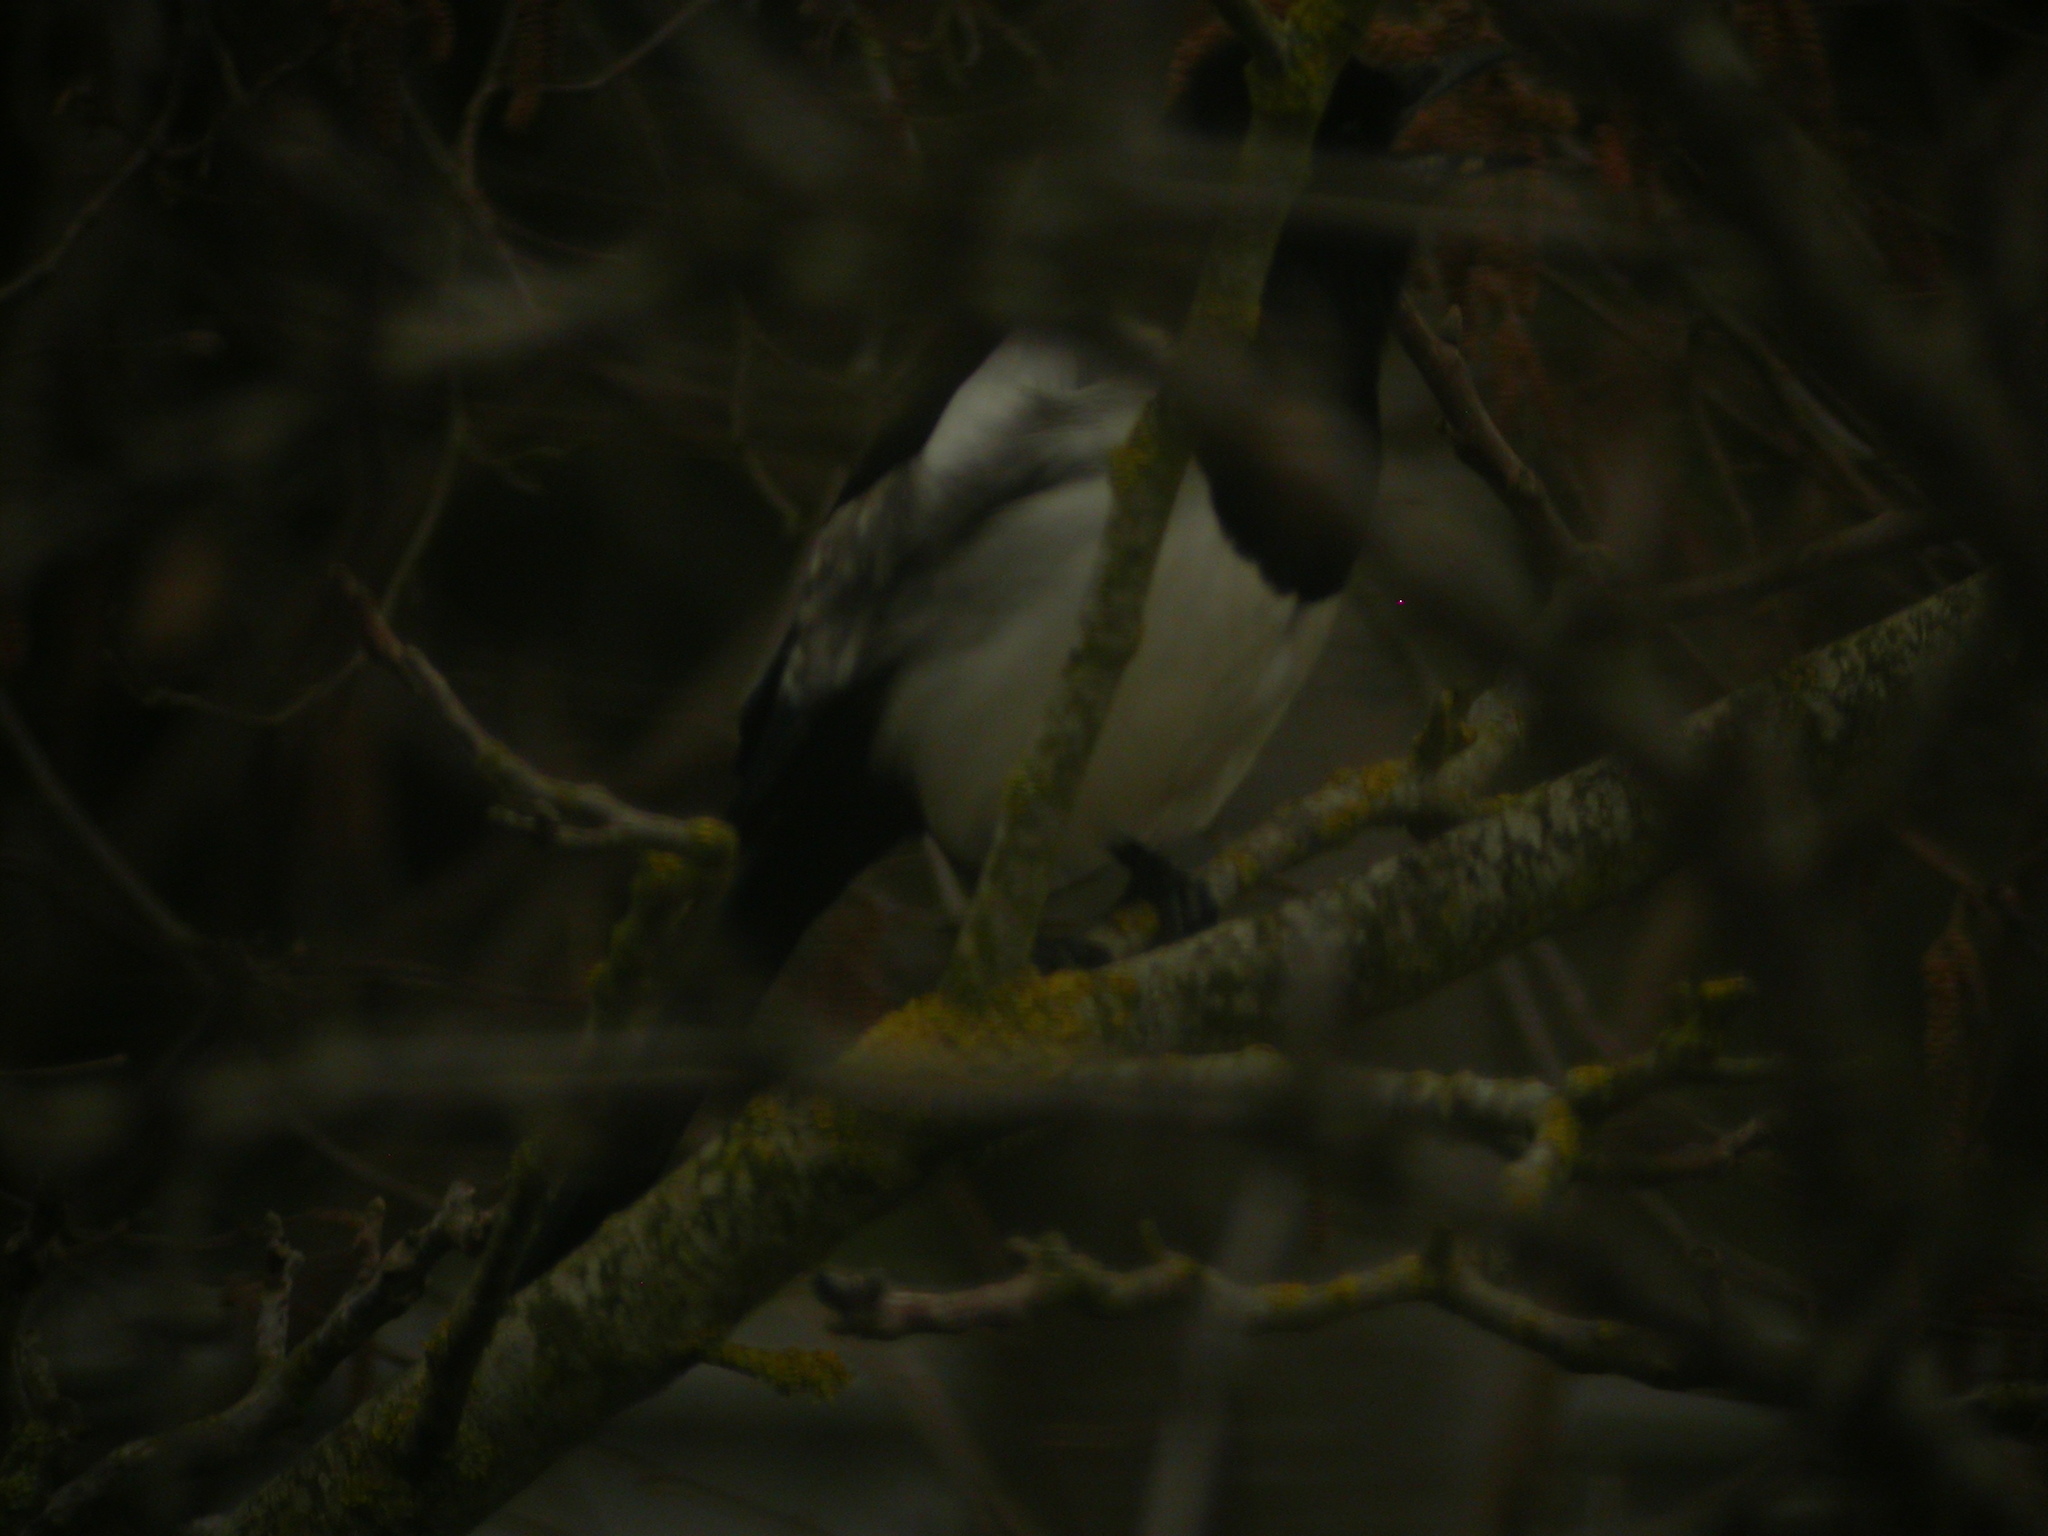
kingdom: Animalia
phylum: Chordata
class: Aves
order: Passeriformes
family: Corvidae
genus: Pica
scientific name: Pica pica
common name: Eurasian magpie
